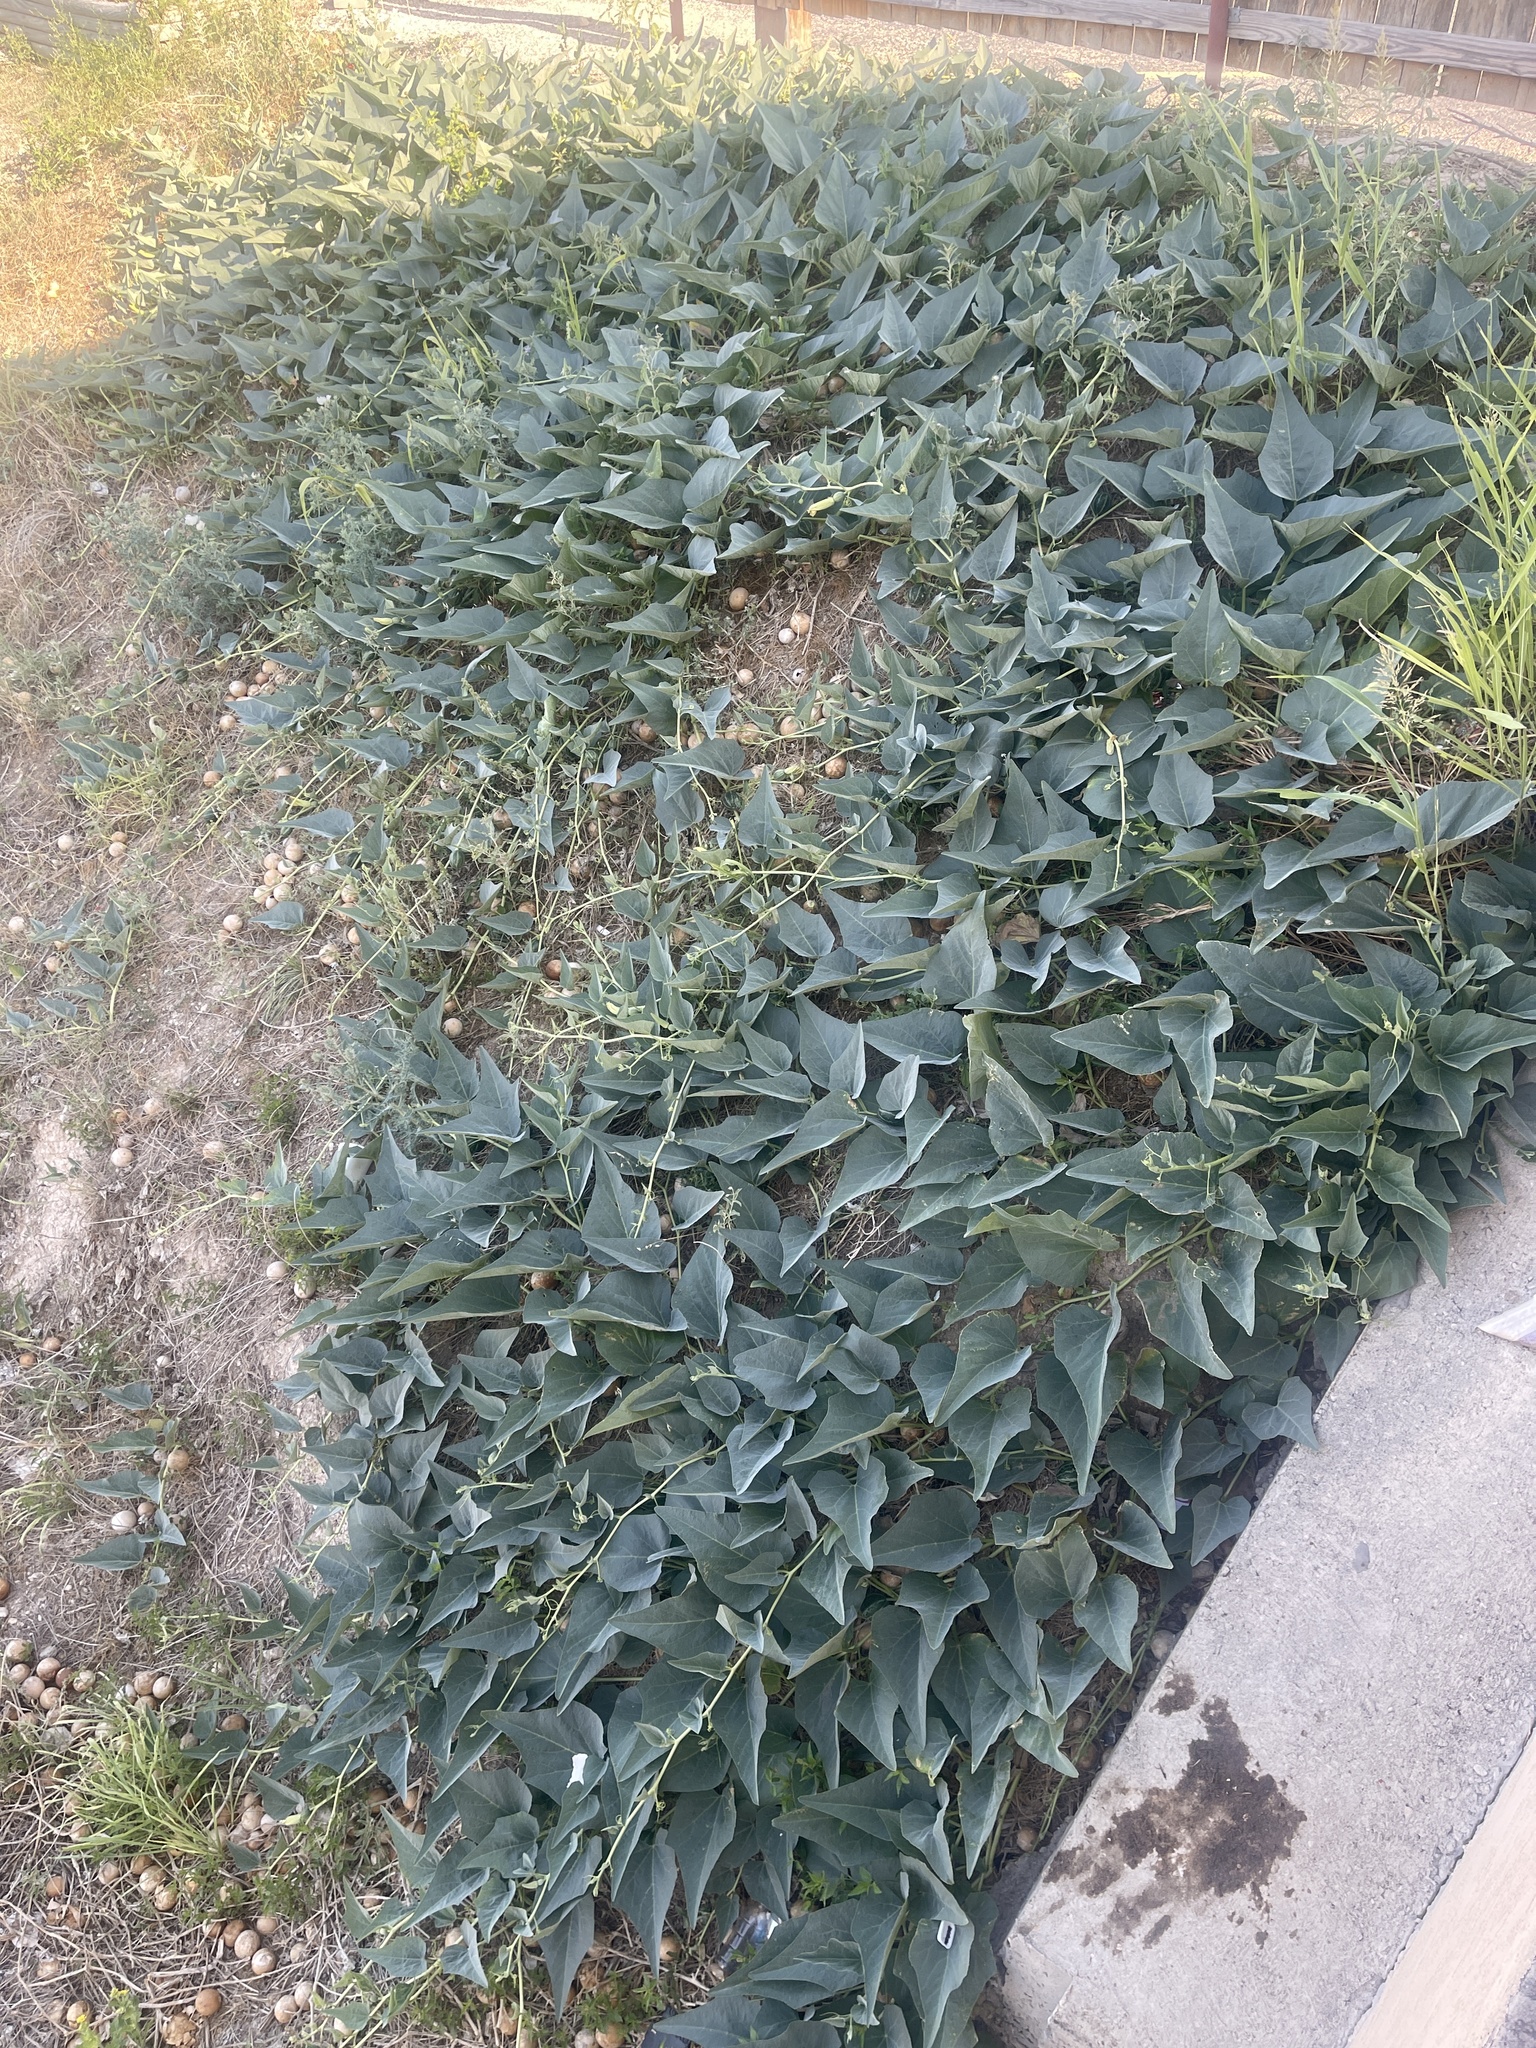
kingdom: Plantae
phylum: Tracheophyta
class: Magnoliopsida
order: Cucurbitales
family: Cucurbitaceae
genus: Cucurbita
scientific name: Cucurbita foetidissima
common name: Buffalo gourd
